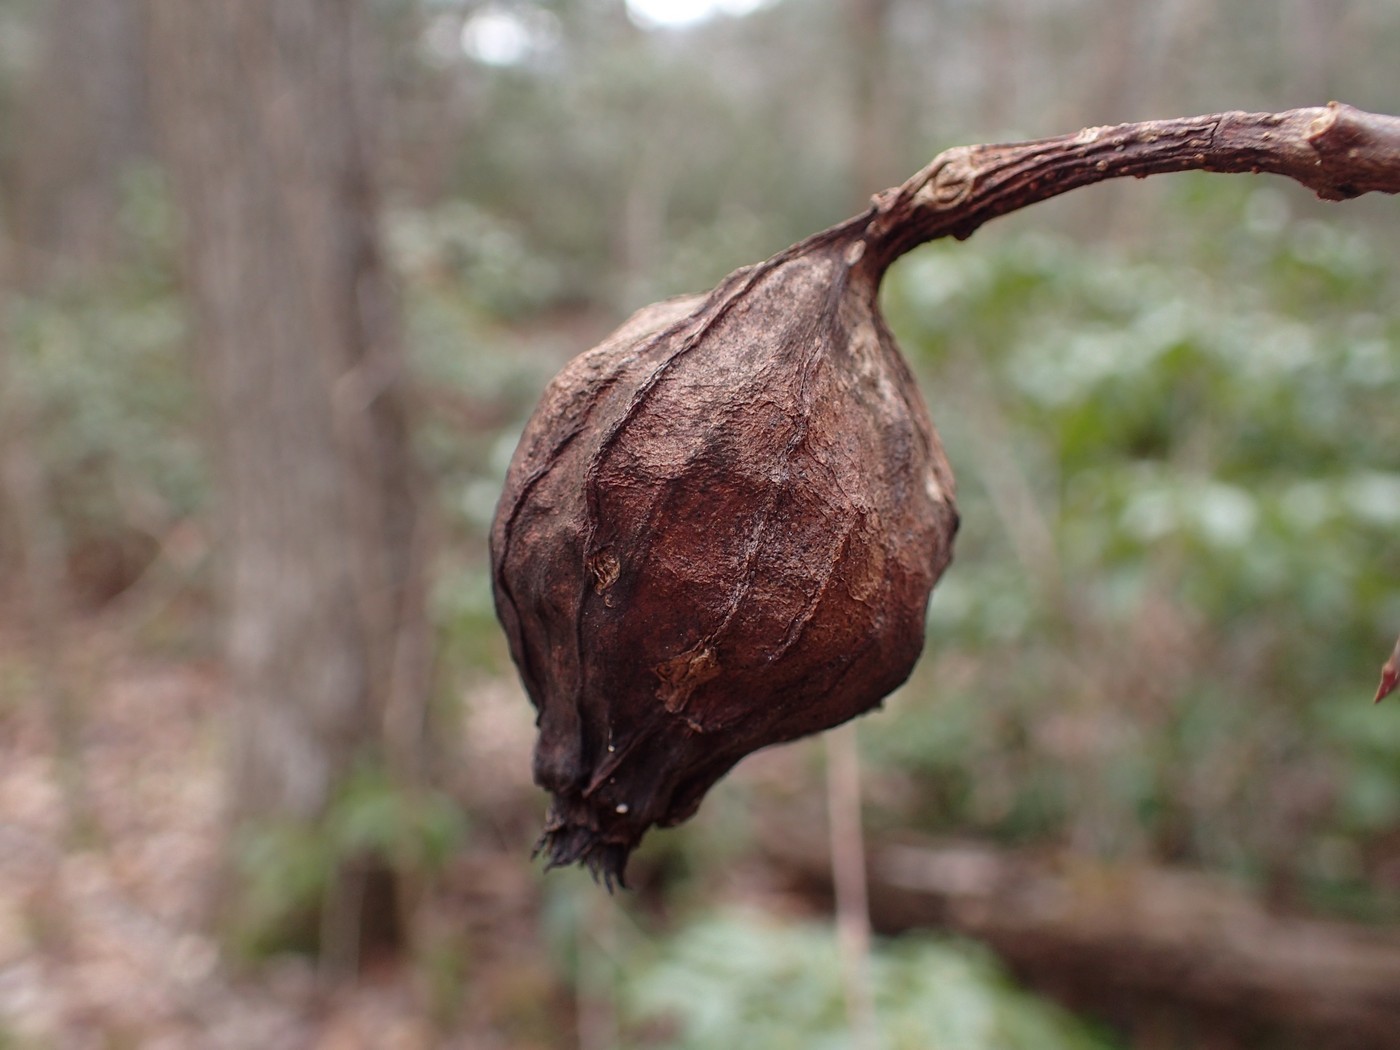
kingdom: Plantae
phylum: Tracheophyta
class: Magnoliopsida
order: Laurales
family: Calycanthaceae
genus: Calycanthus
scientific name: Calycanthus floridus
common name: Carolina-allspice
